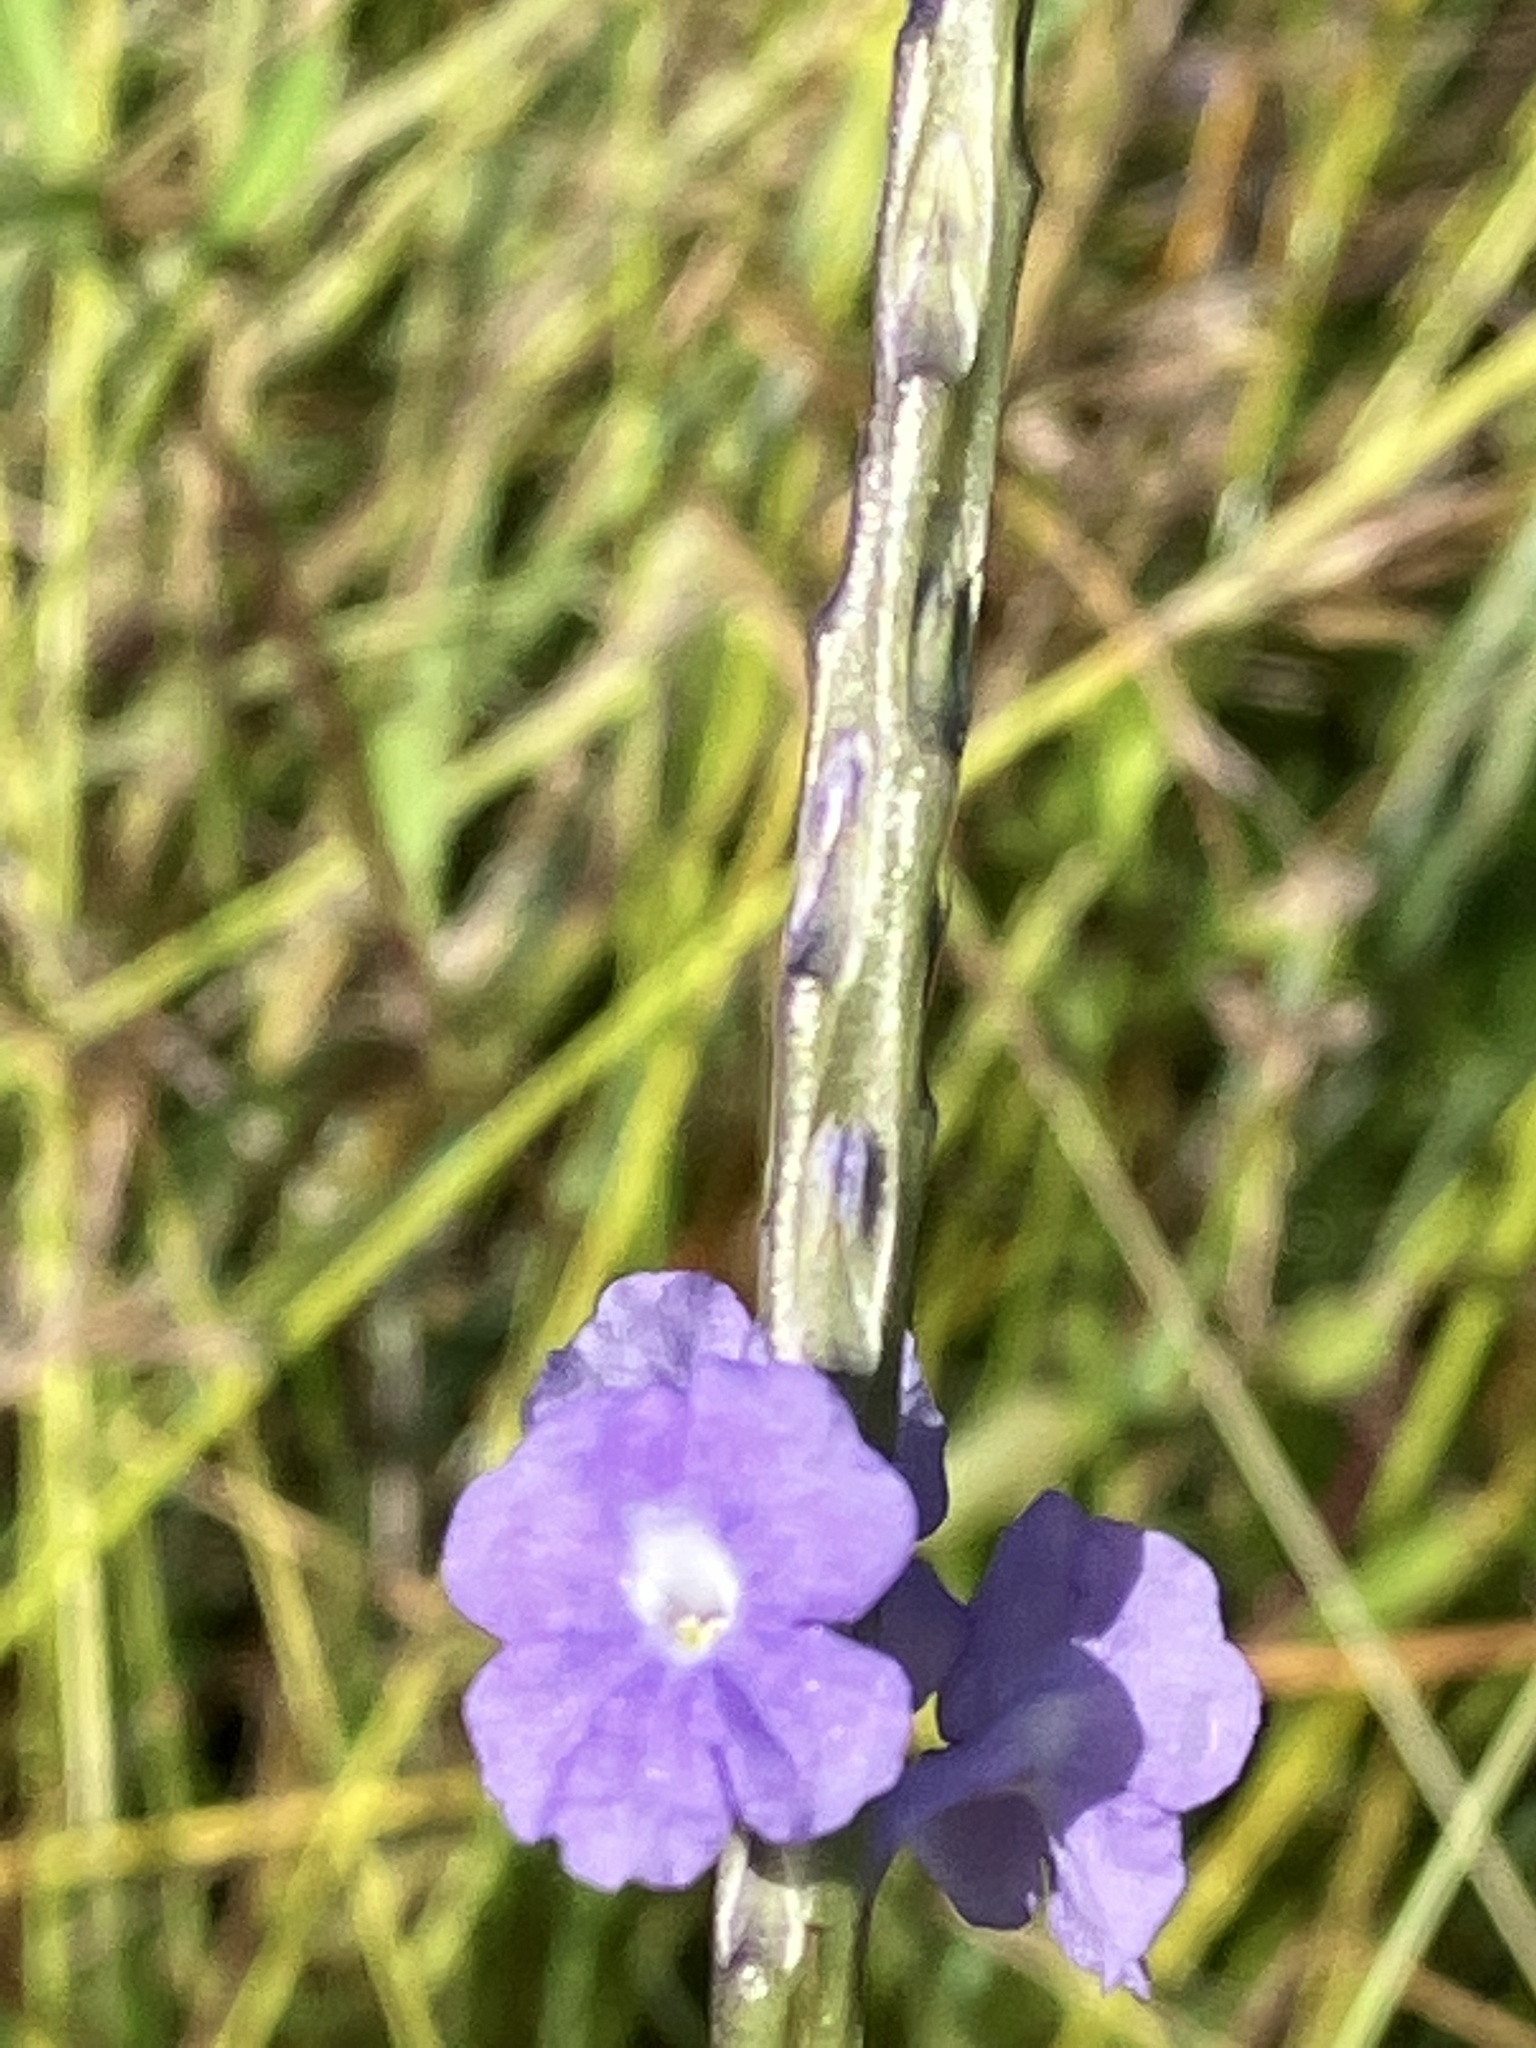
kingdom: Plantae
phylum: Tracheophyta
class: Magnoliopsida
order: Lamiales
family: Verbenaceae
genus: Stachytarpheta
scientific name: Stachytarpheta jamaicensis
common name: Light-blue snakeweed
